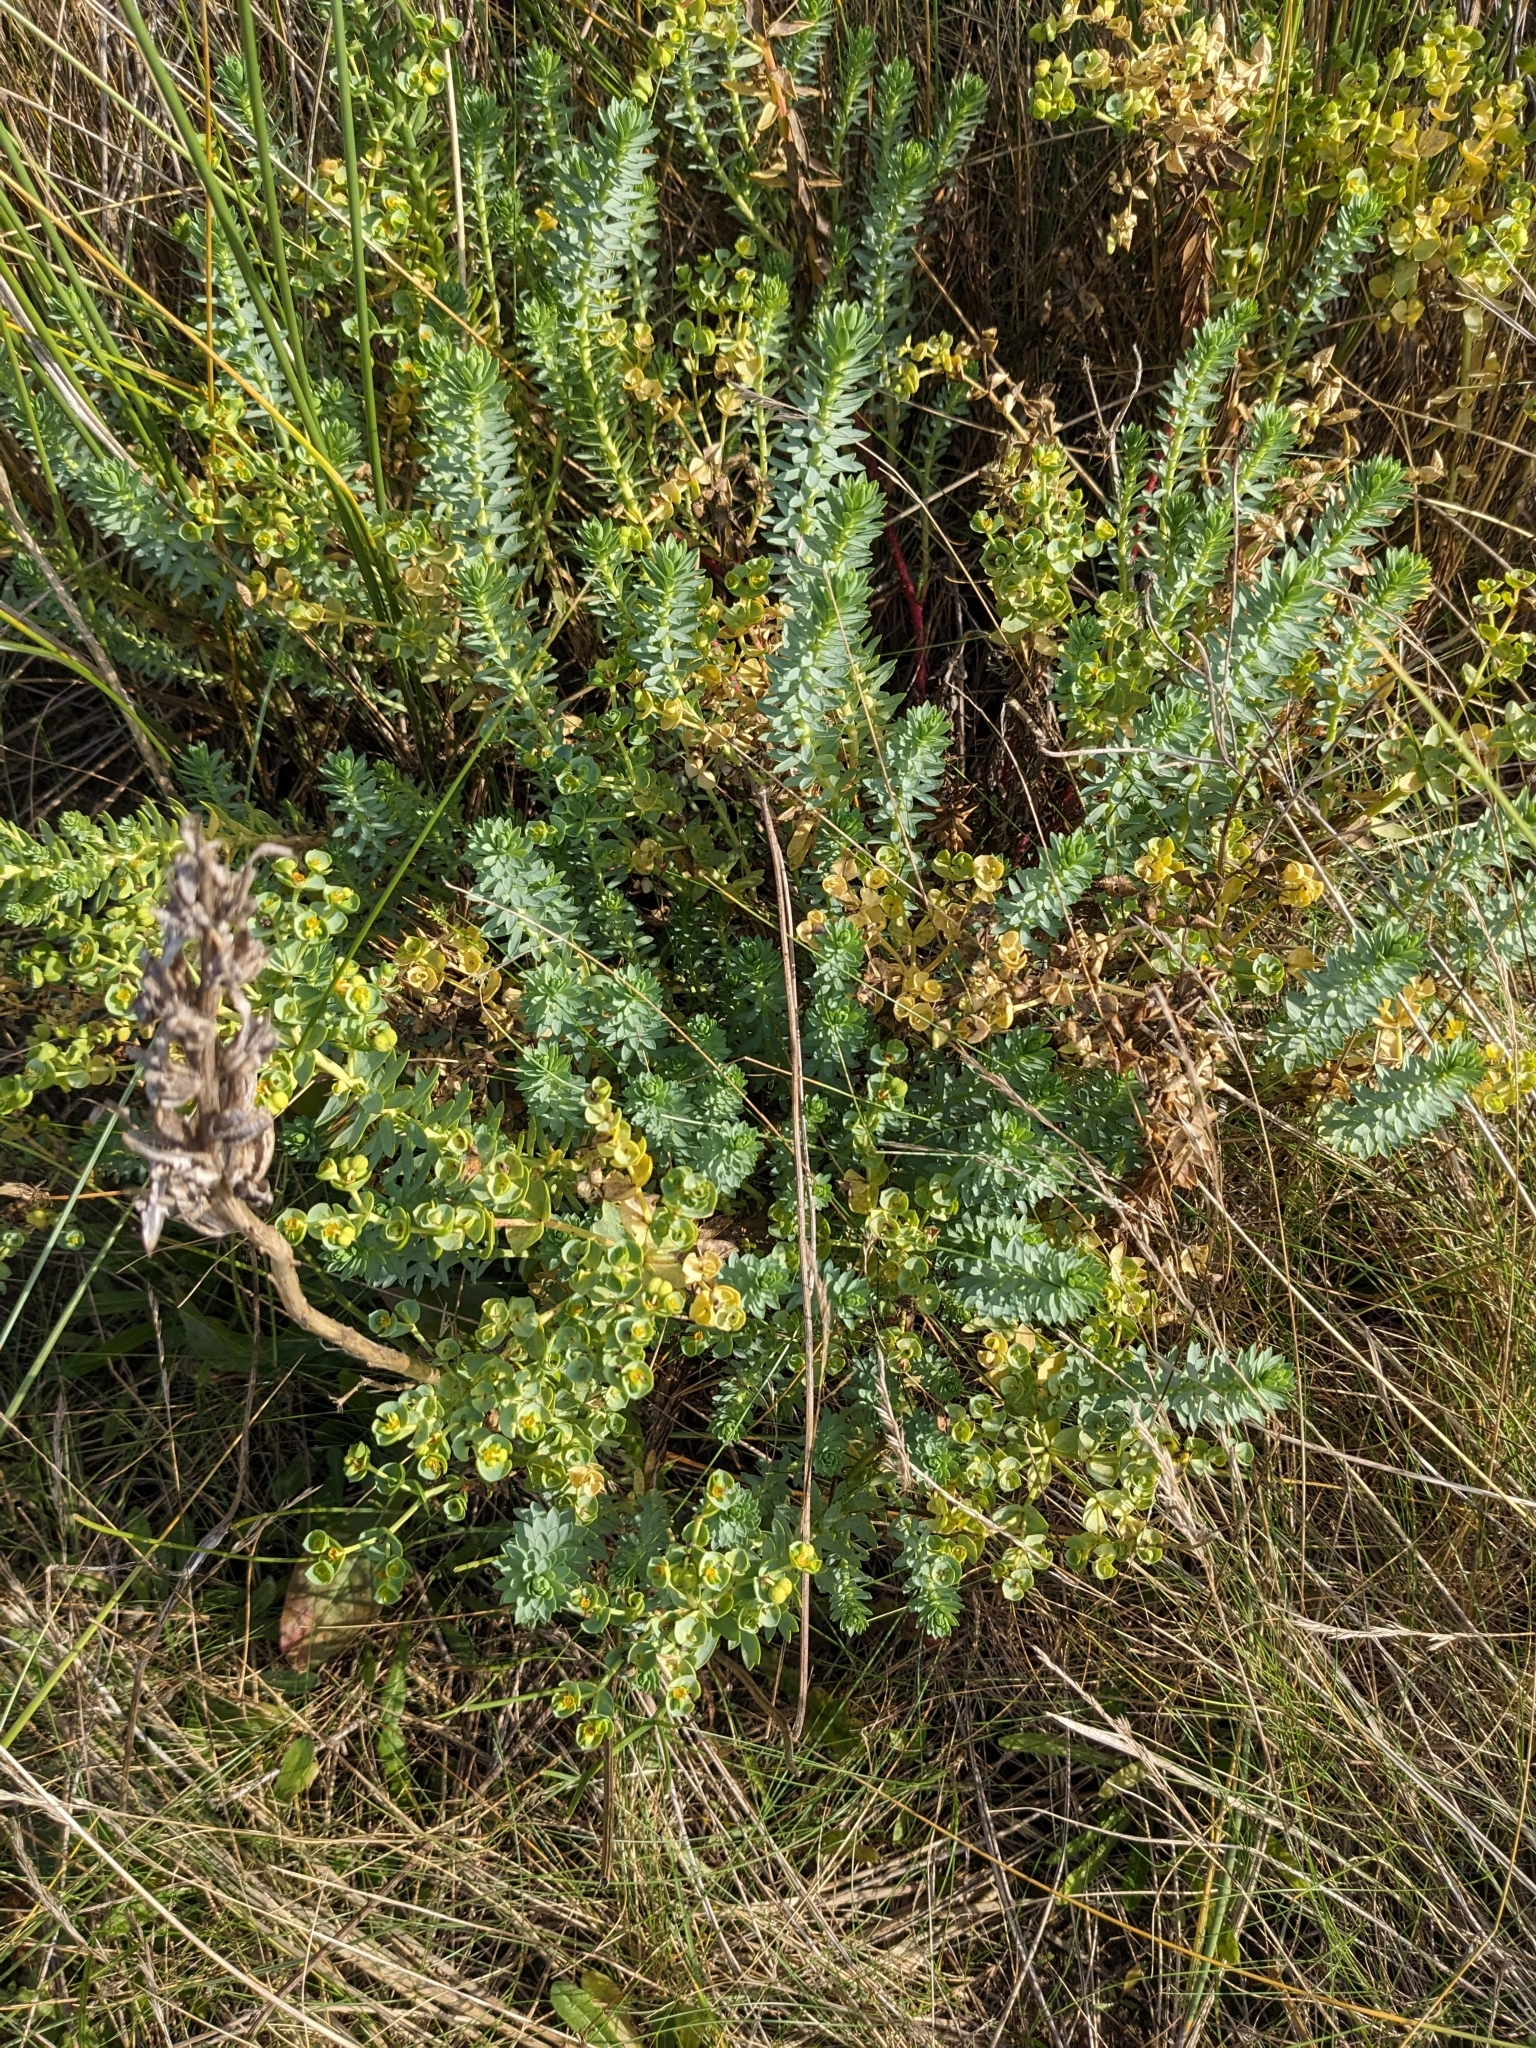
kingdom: Plantae
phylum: Tracheophyta
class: Magnoliopsida
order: Malpighiales
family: Euphorbiaceae
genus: Euphorbia
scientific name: Euphorbia paralias
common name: Sea spurge
